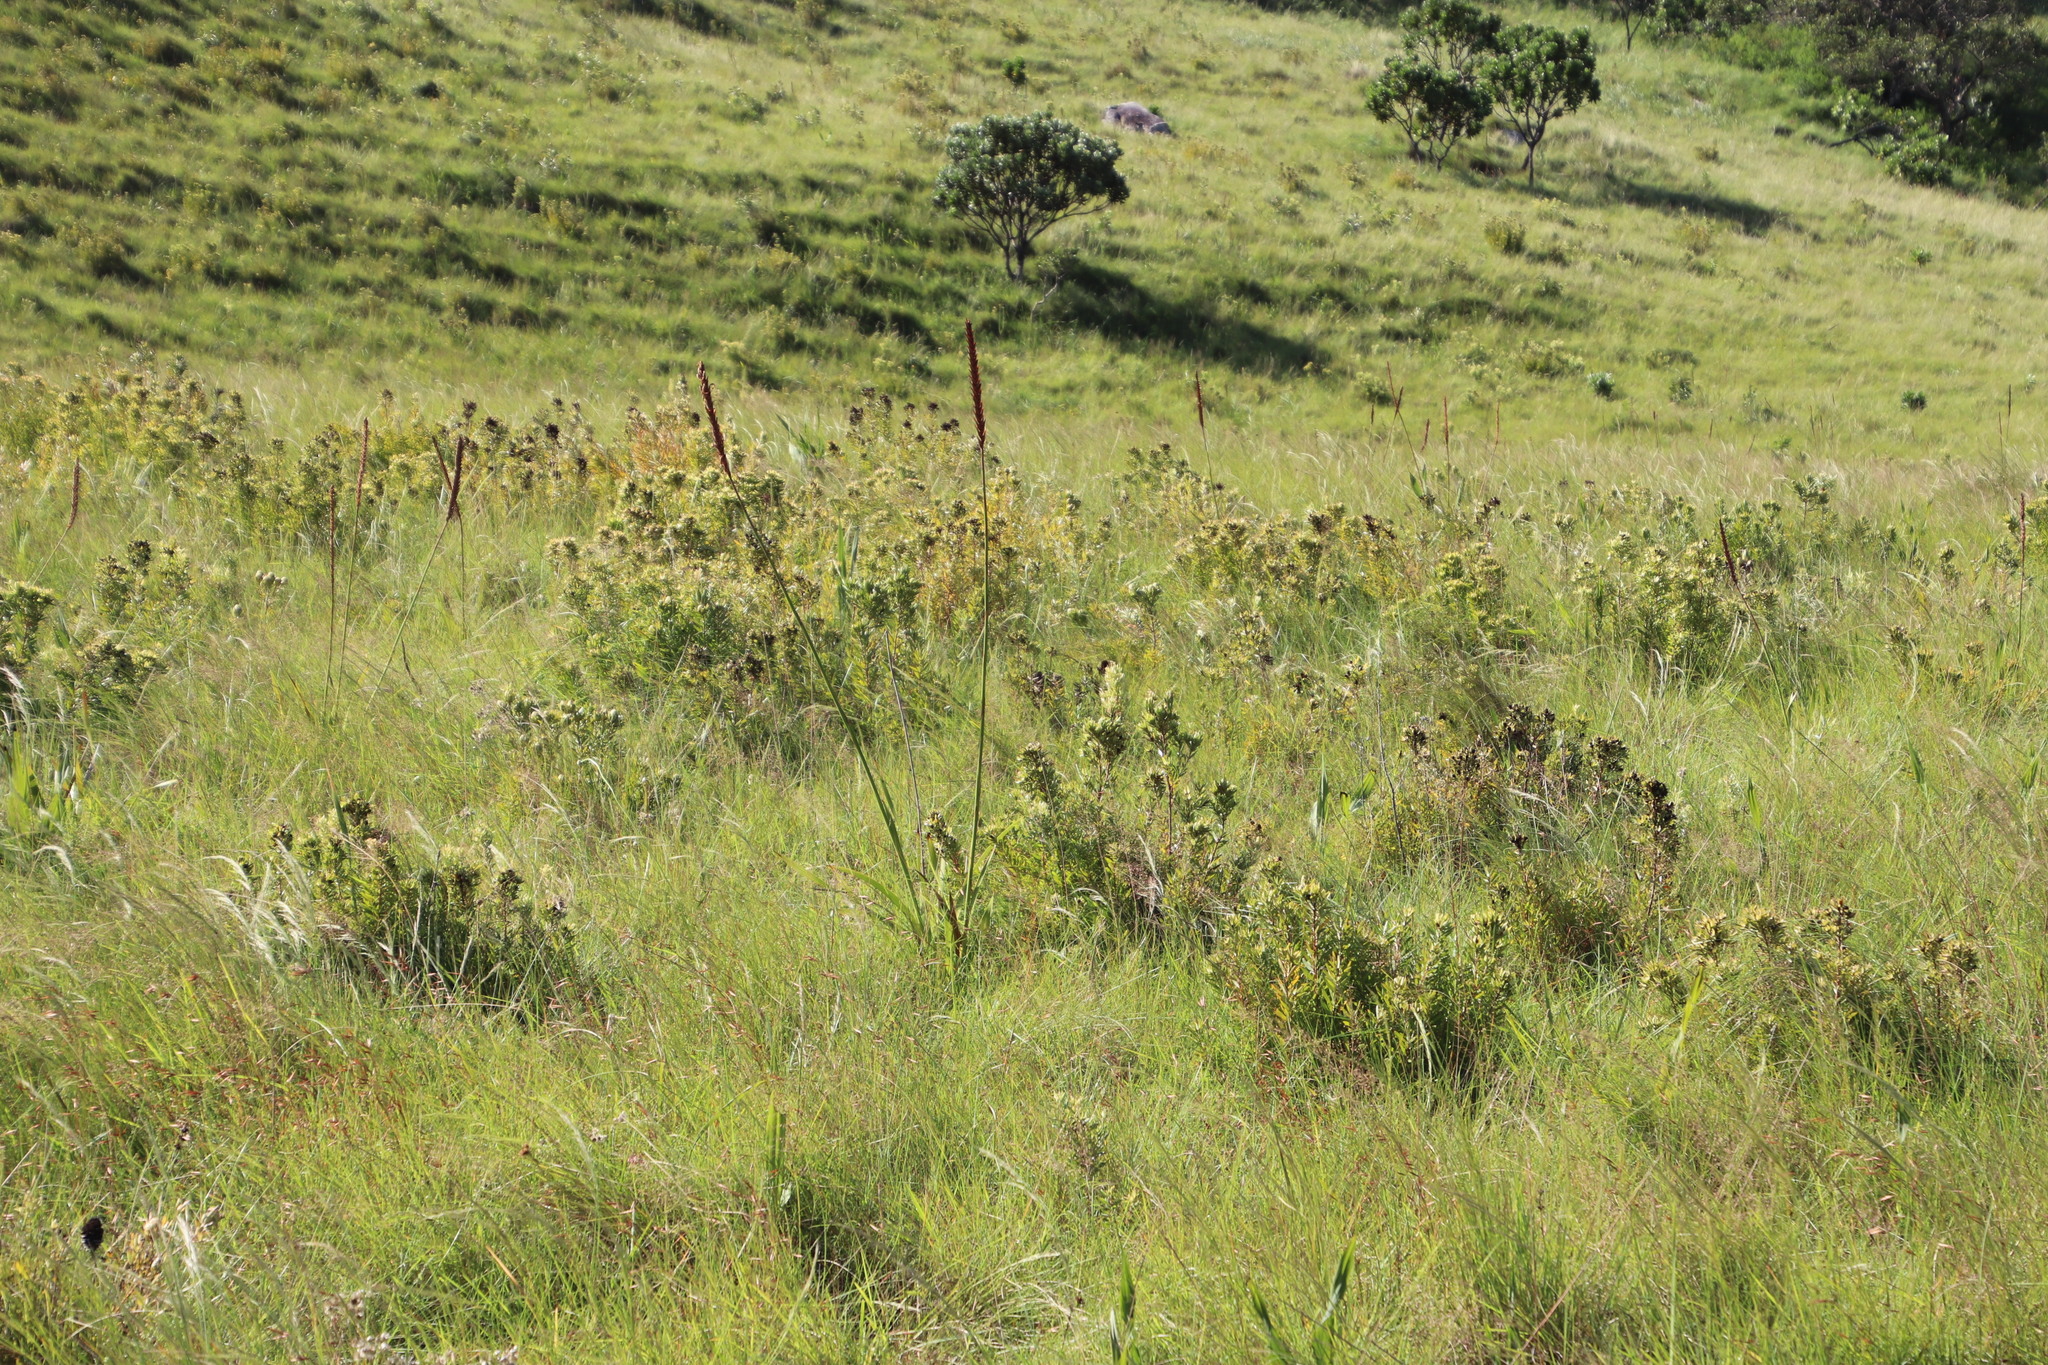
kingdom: Plantae
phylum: Tracheophyta
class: Magnoliopsida
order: Proteales
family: Proteaceae
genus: Leucadendron
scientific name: Leucadendron spissifolium
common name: Spear-leaf conebush
